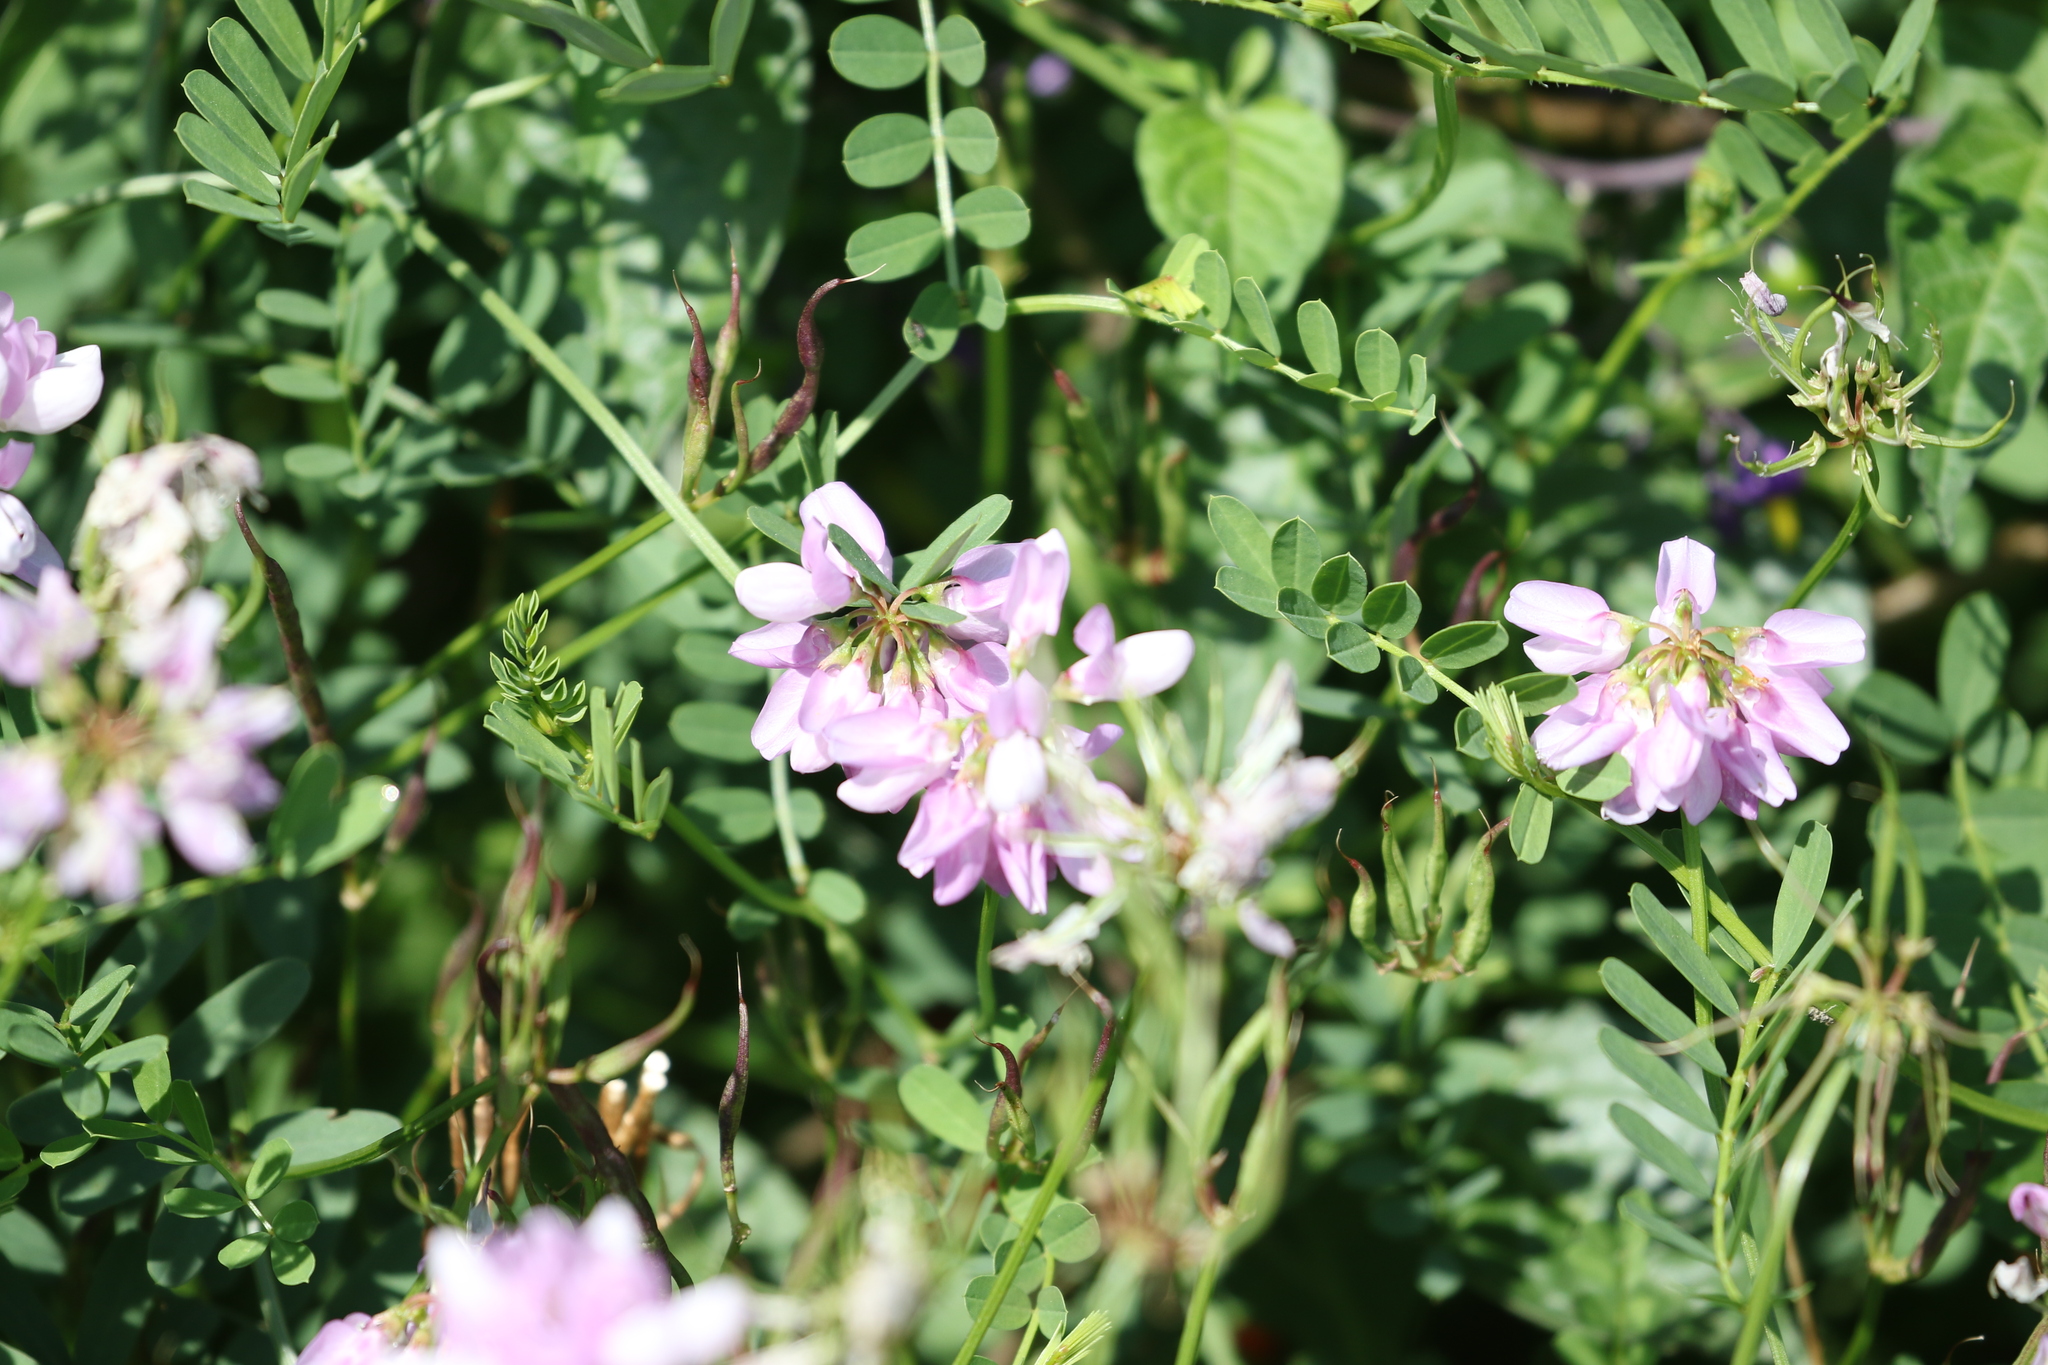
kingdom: Plantae
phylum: Tracheophyta
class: Magnoliopsida
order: Fabales
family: Fabaceae
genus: Coronilla
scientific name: Coronilla varia
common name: Crownvetch
